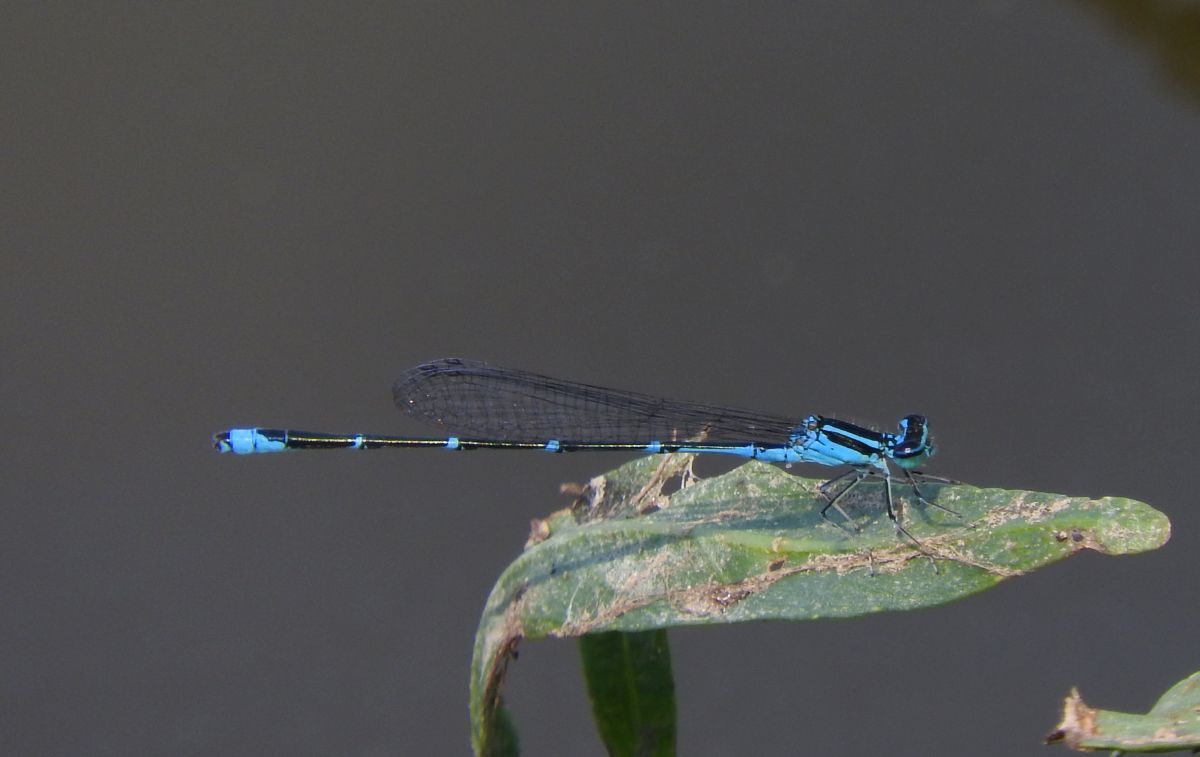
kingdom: Animalia
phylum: Arthropoda
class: Insecta
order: Odonata
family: Coenagrionidae
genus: Enallagma
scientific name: Enallagma exsulans
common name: Stream bluet
